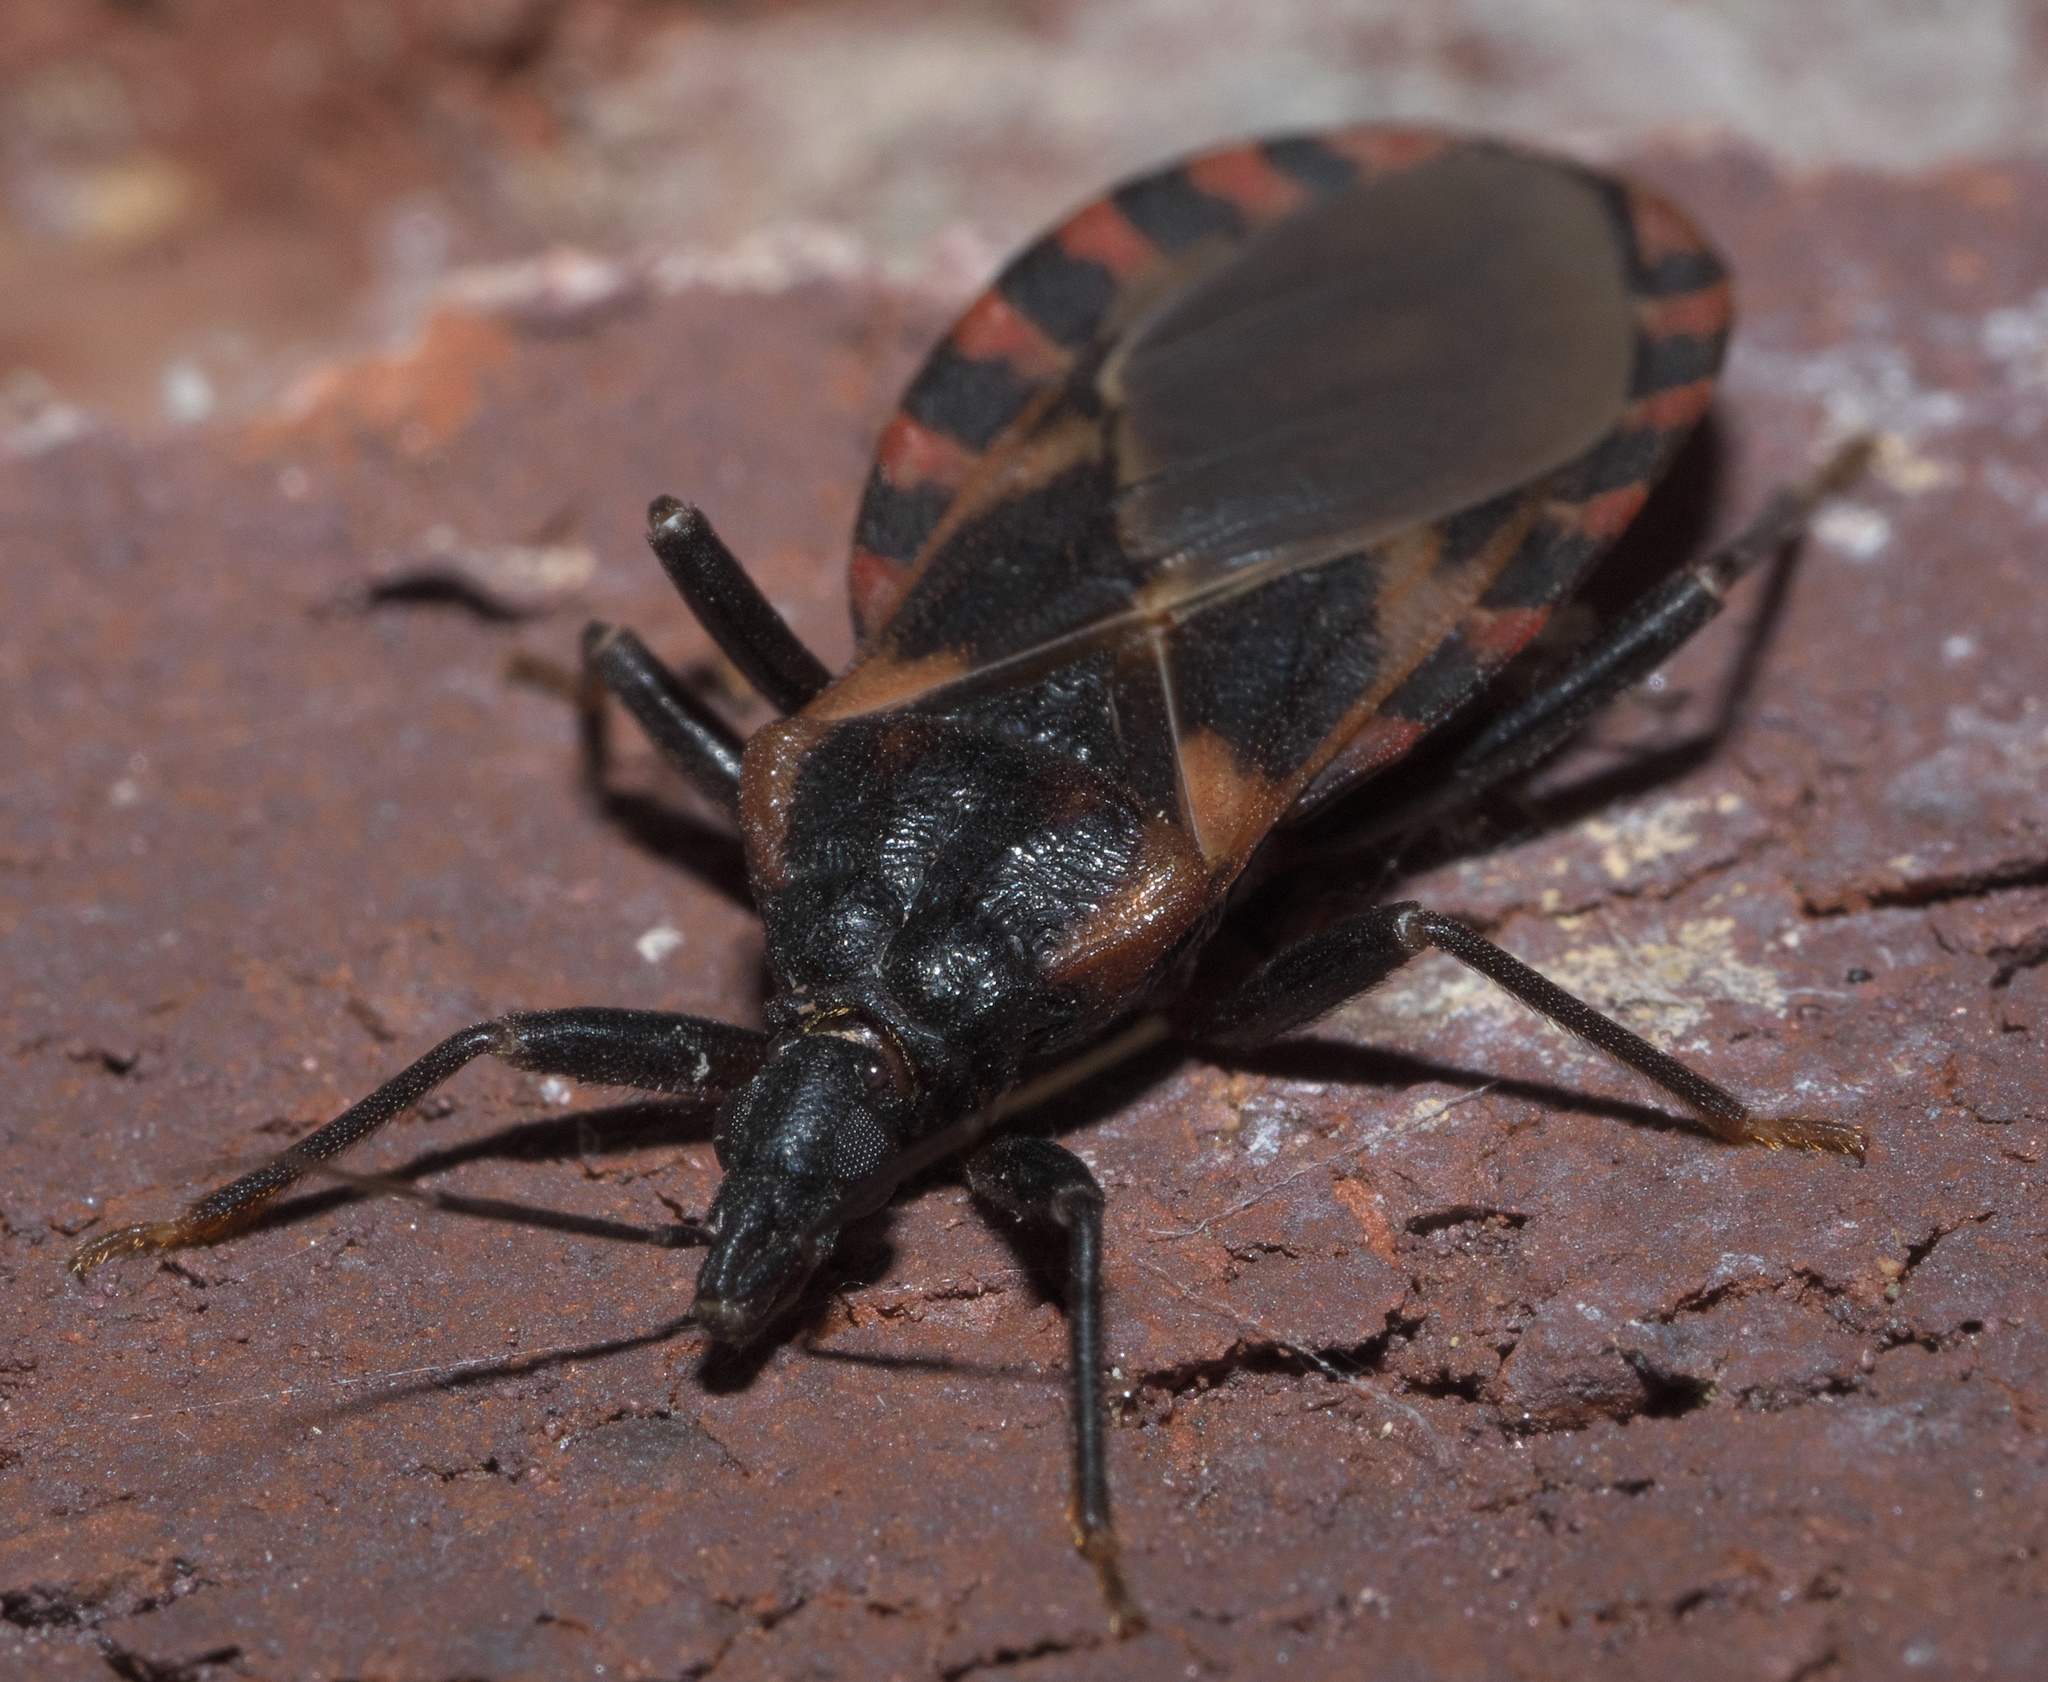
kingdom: Animalia
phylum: Arthropoda
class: Insecta
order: Hemiptera
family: Reduviidae
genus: Triatoma
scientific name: Triatoma sanguisuga
